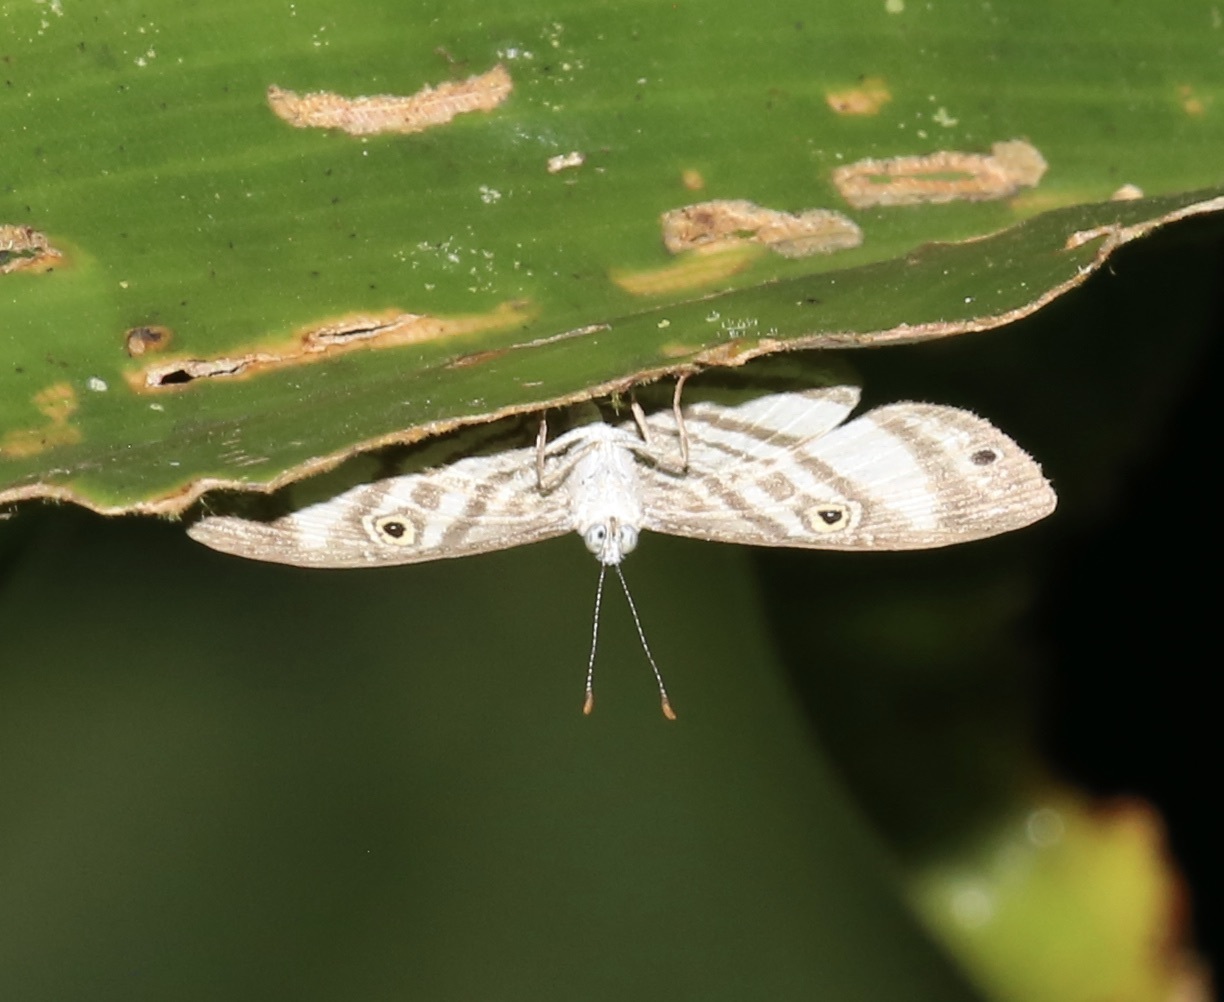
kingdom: Animalia
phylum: Arthropoda
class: Insecta
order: Lepidoptera
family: Riodinidae
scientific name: Riodinidae
